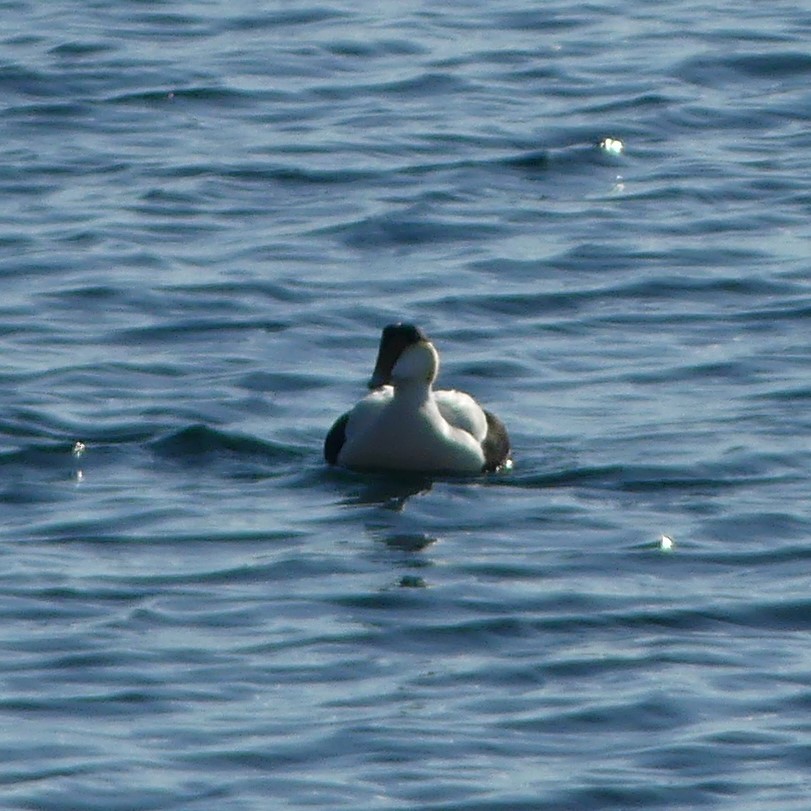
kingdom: Animalia
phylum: Chordata
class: Aves
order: Anseriformes
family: Anatidae
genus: Somateria
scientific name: Somateria mollissima
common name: Common eider
